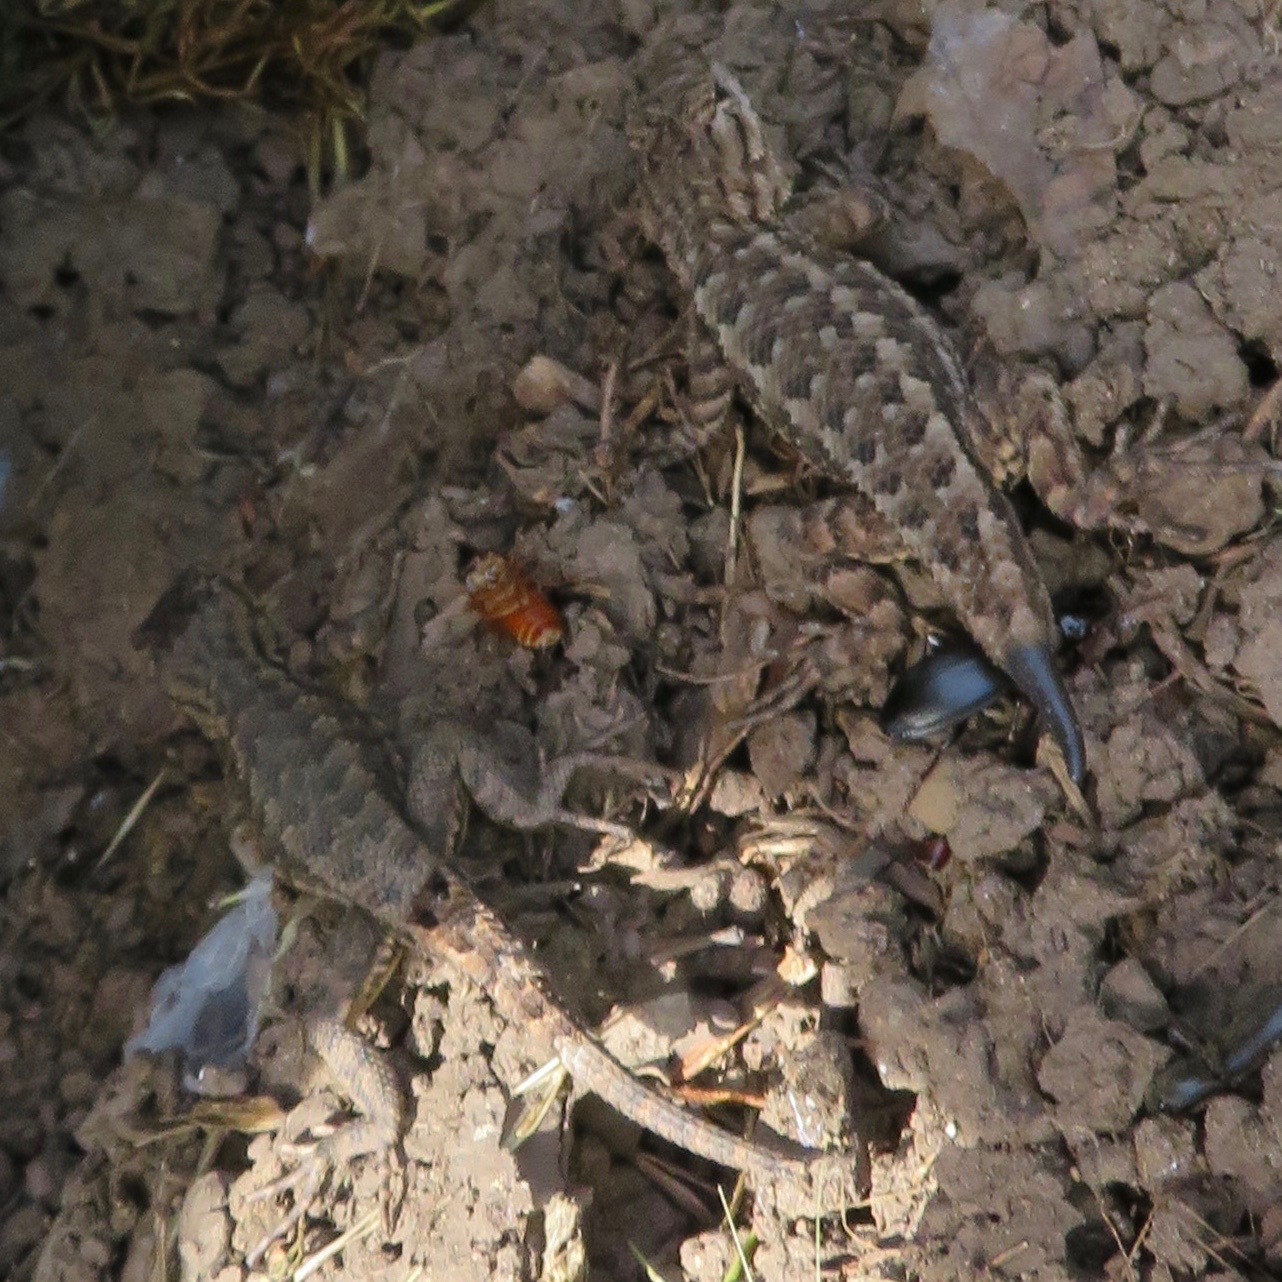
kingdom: Animalia
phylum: Chordata
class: Squamata
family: Phrynosomatidae
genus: Sceloporus
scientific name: Sceloporus occidentalis
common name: Western fence lizard
